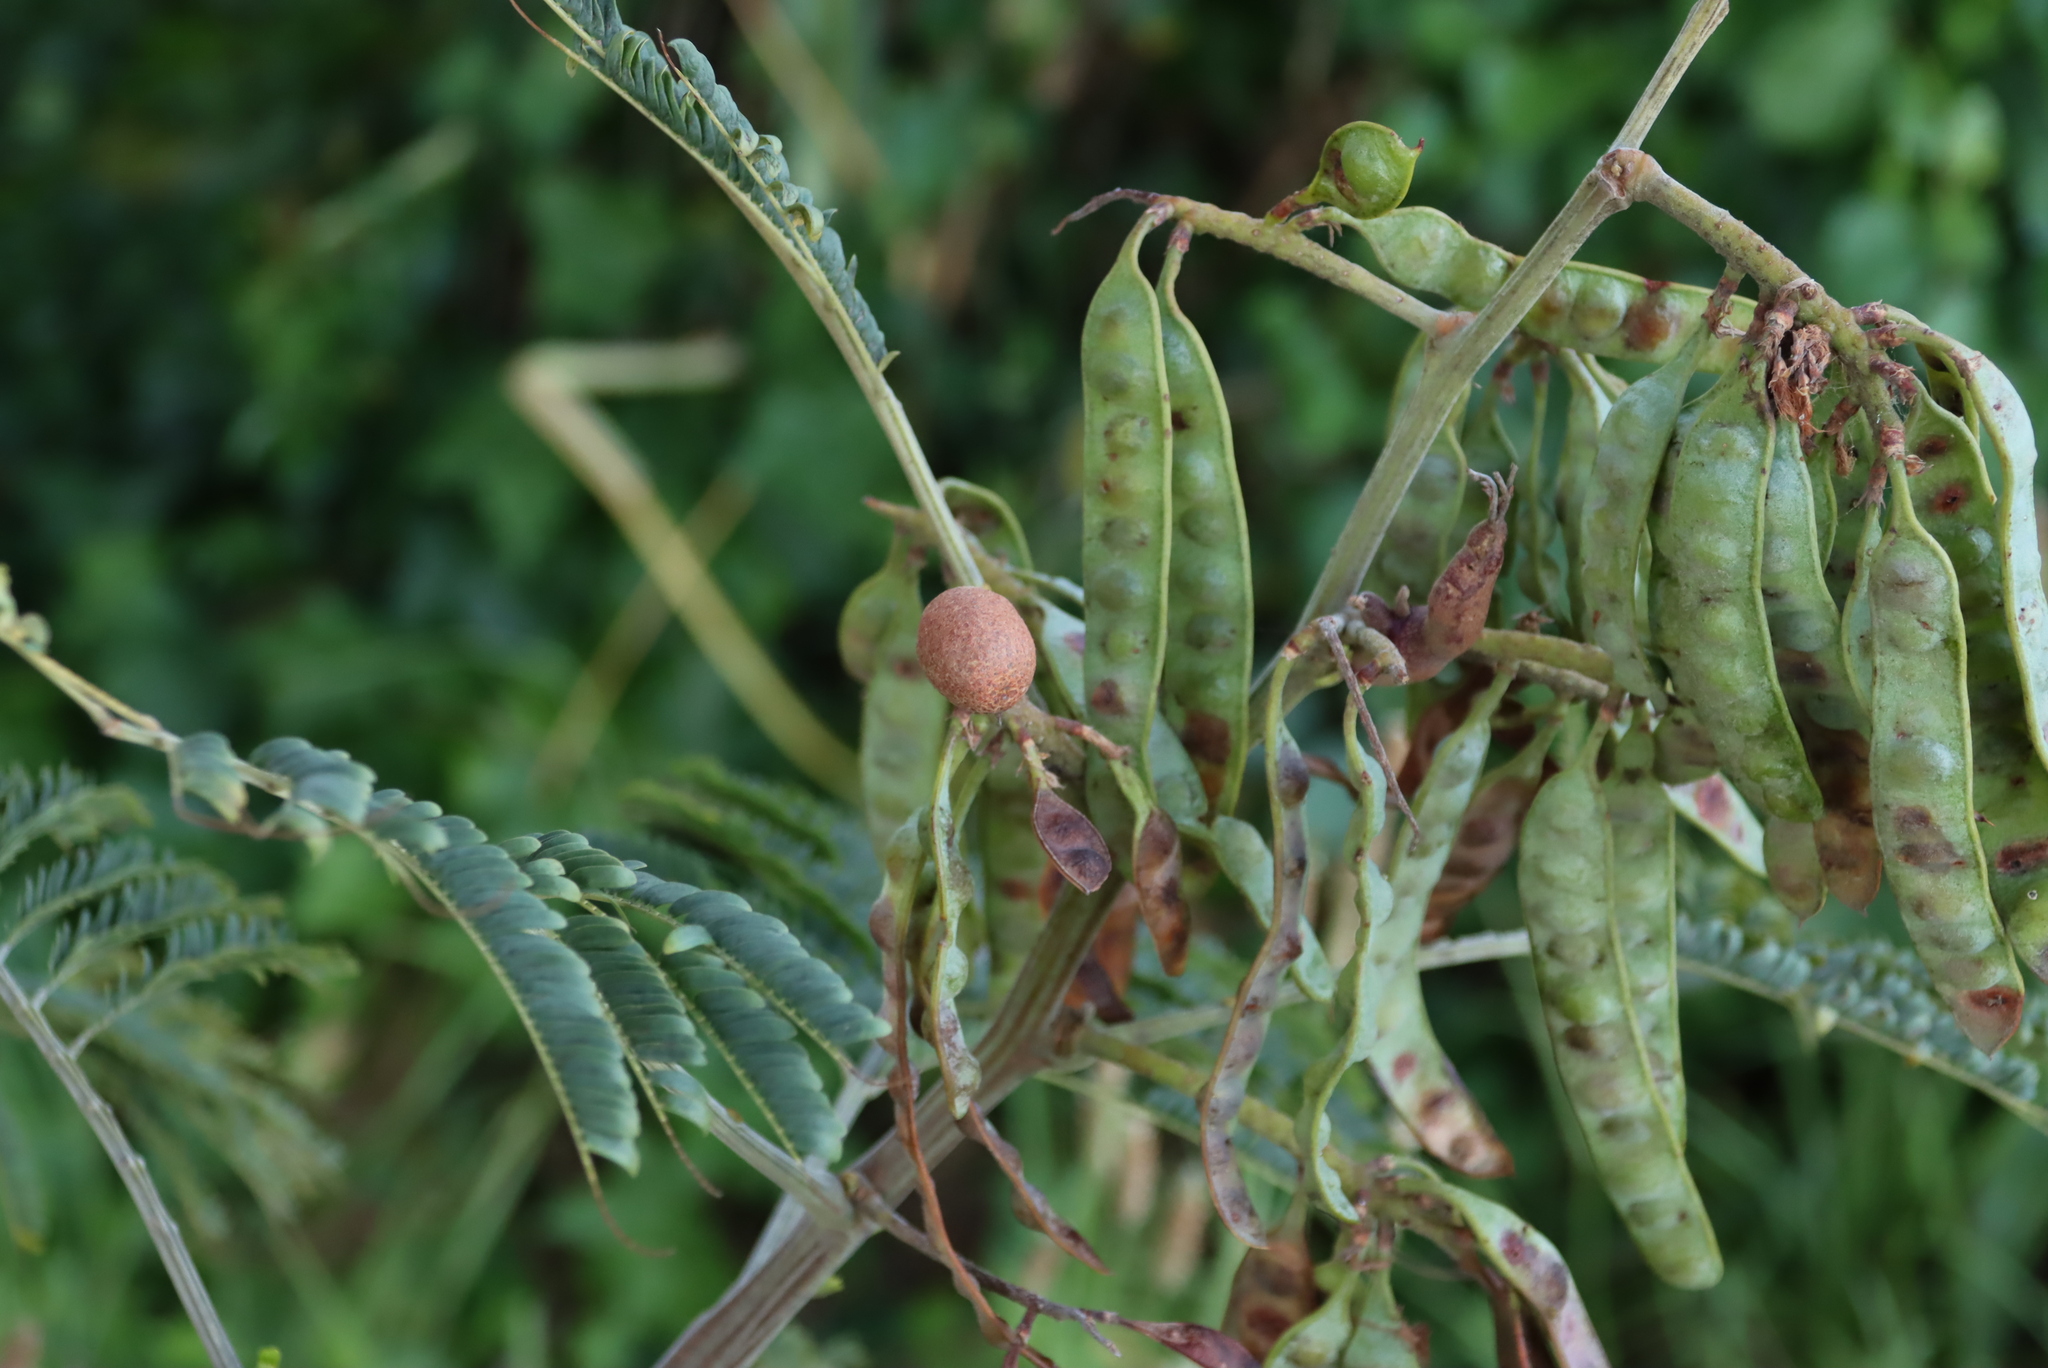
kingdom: Fungi
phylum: Basidiomycota
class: Pucciniomycetes
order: Pucciniales
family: Uromycladiaceae
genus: Uromycladium
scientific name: Uromycladium woodii
